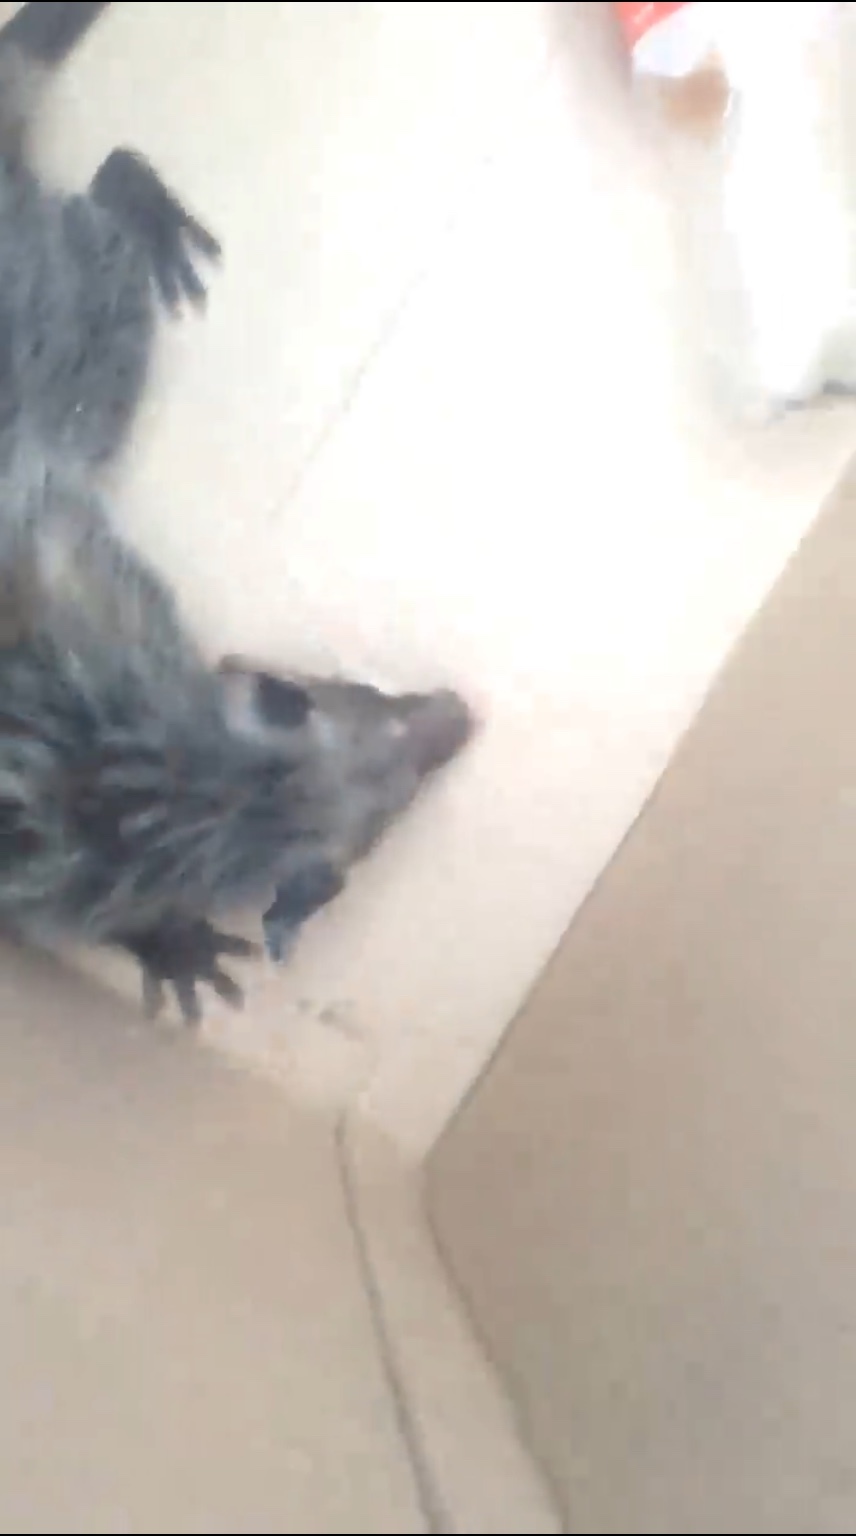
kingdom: Animalia
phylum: Chordata
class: Mammalia
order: Didelphimorphia
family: Didelphidae
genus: Didelphis
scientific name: Didelphis virginiana
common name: Virginia opossum
